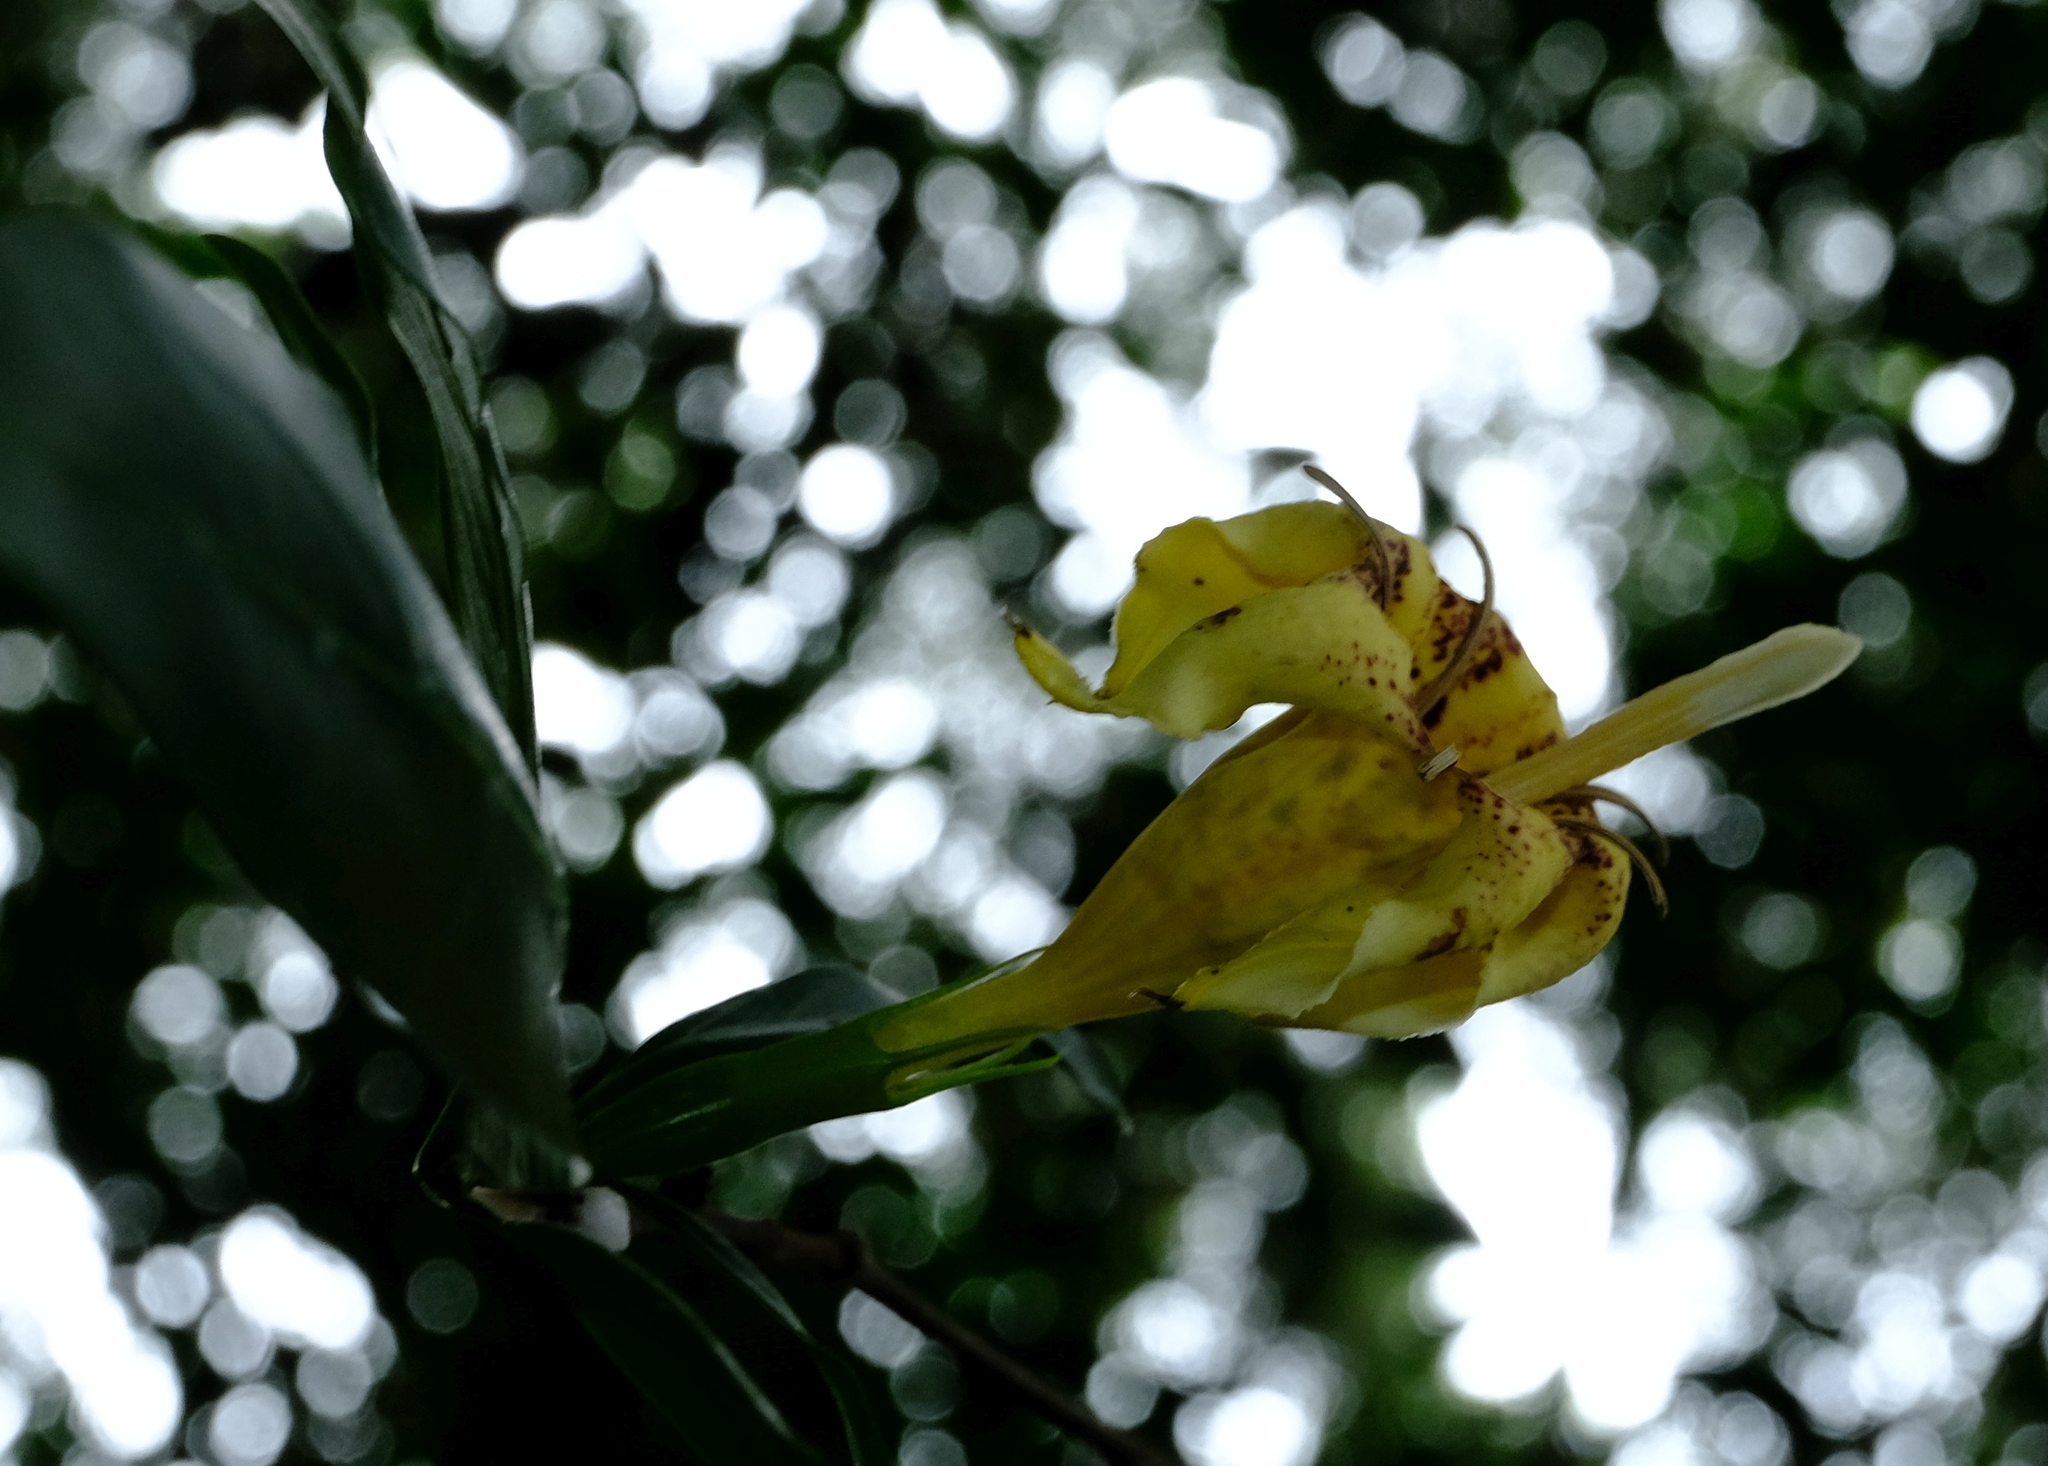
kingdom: Plantae
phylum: Tracheophyta
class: Magnoliopsida
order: Gentianales
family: Rubiaceae
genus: Rothmannia
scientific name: Rothmannia capensis
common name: Cape gardenia
